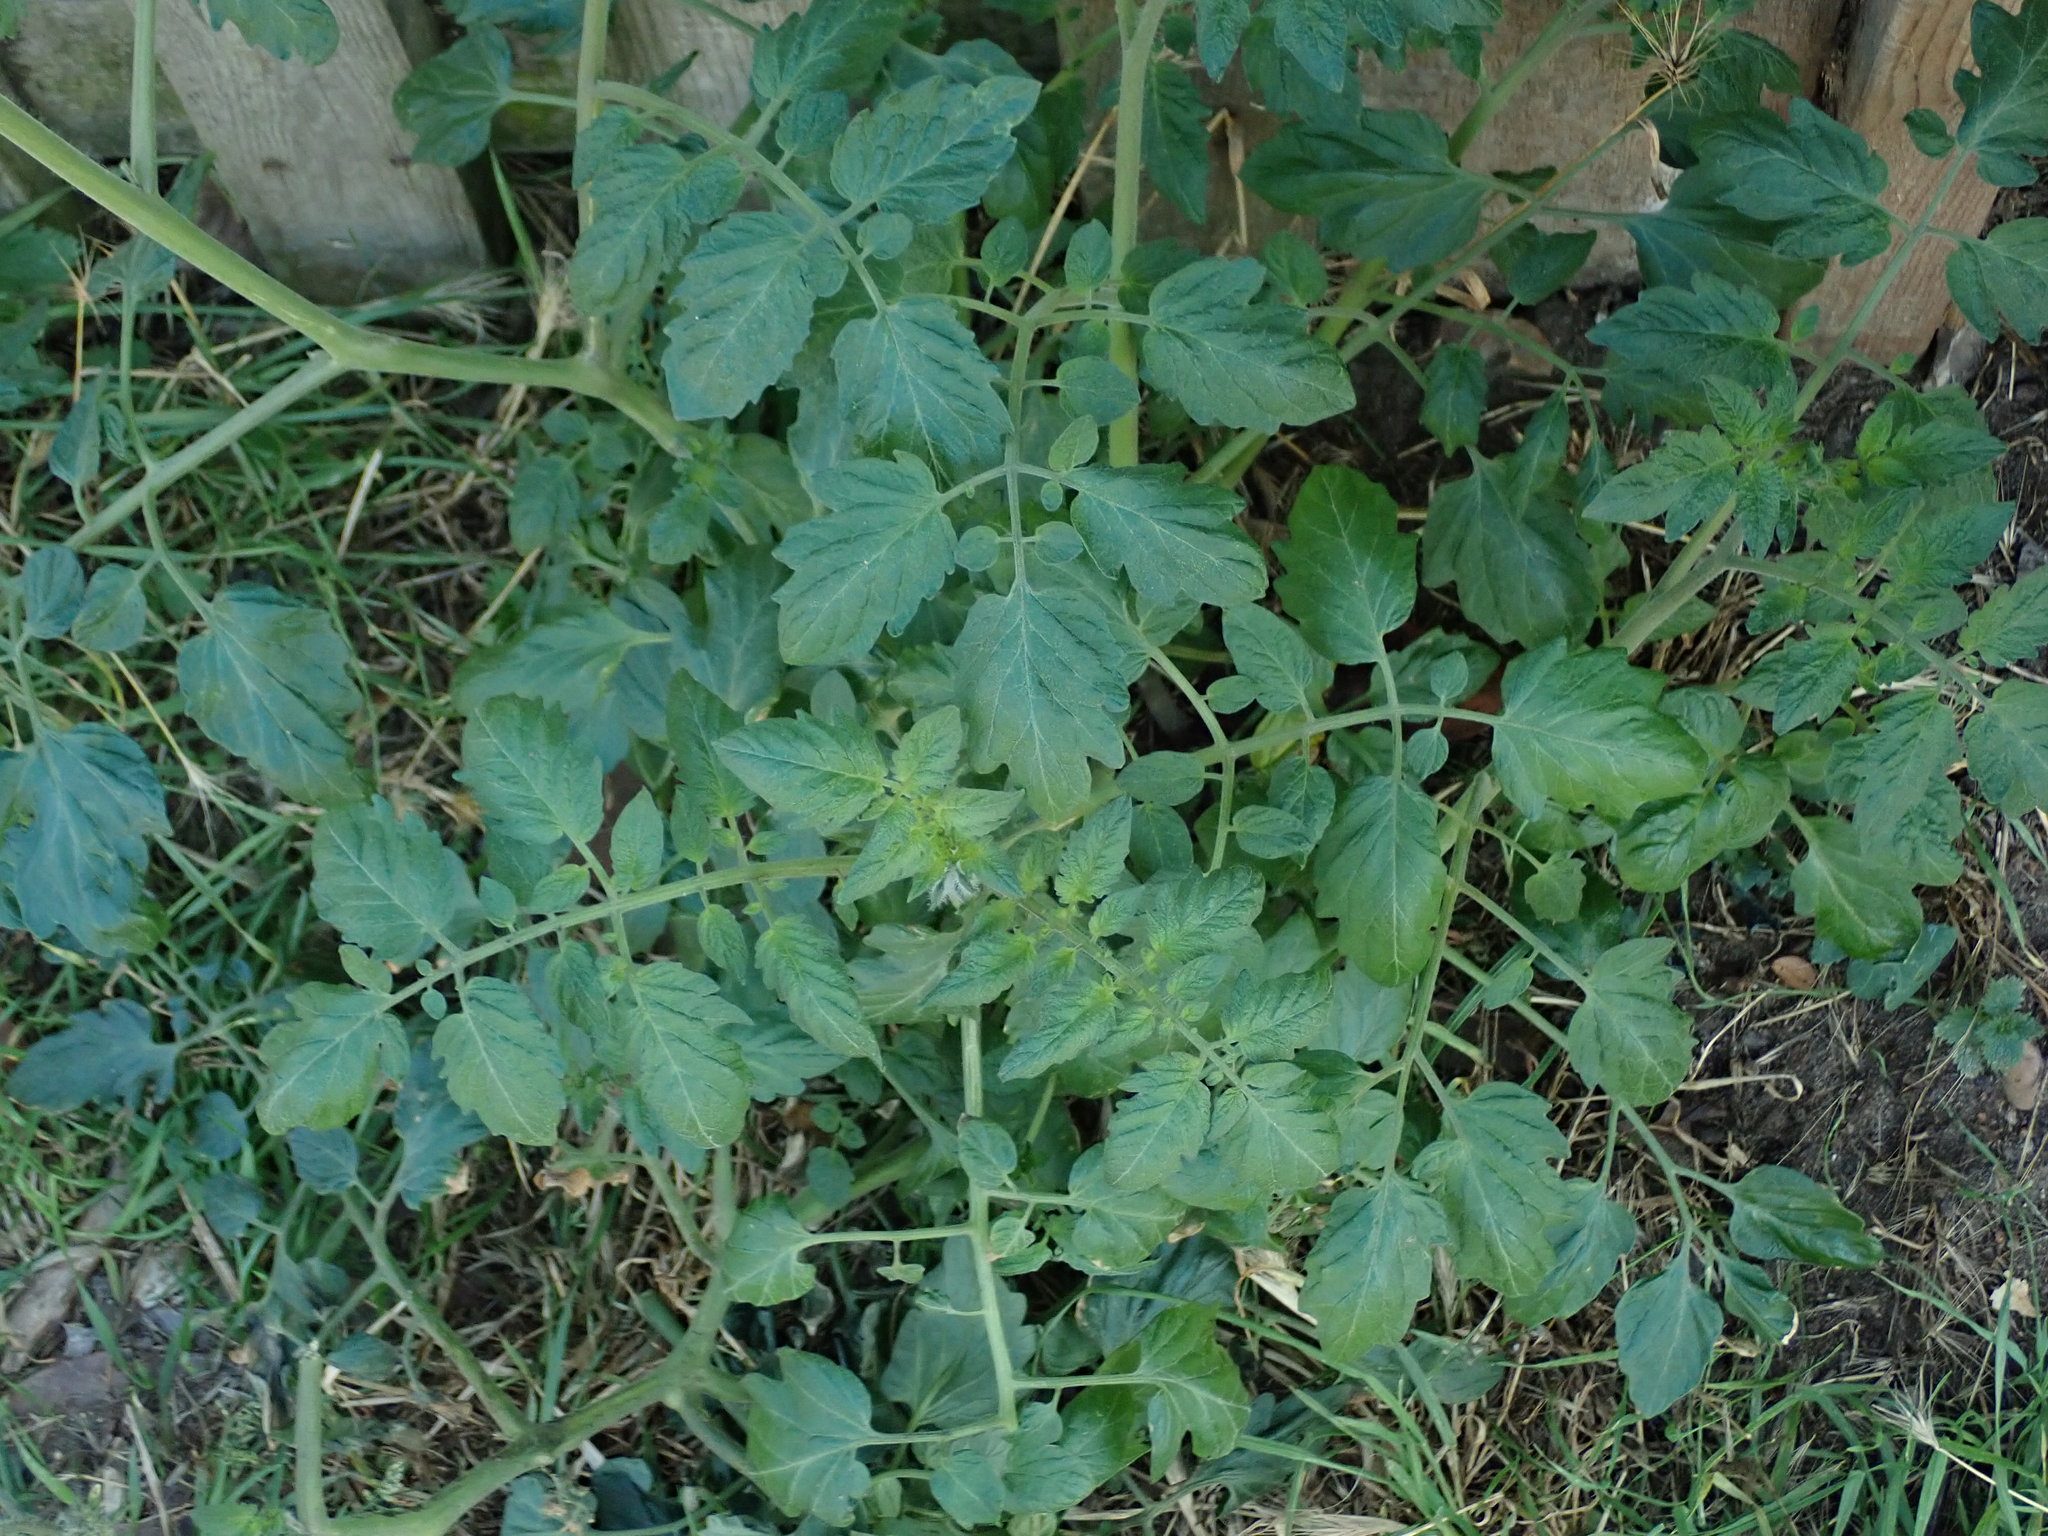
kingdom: Plantae
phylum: Tracheophyta
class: Magnoliopsida
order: Solanales
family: Solanaceae
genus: Solanum
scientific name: Solanum lycopersicum
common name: Garden tomato
